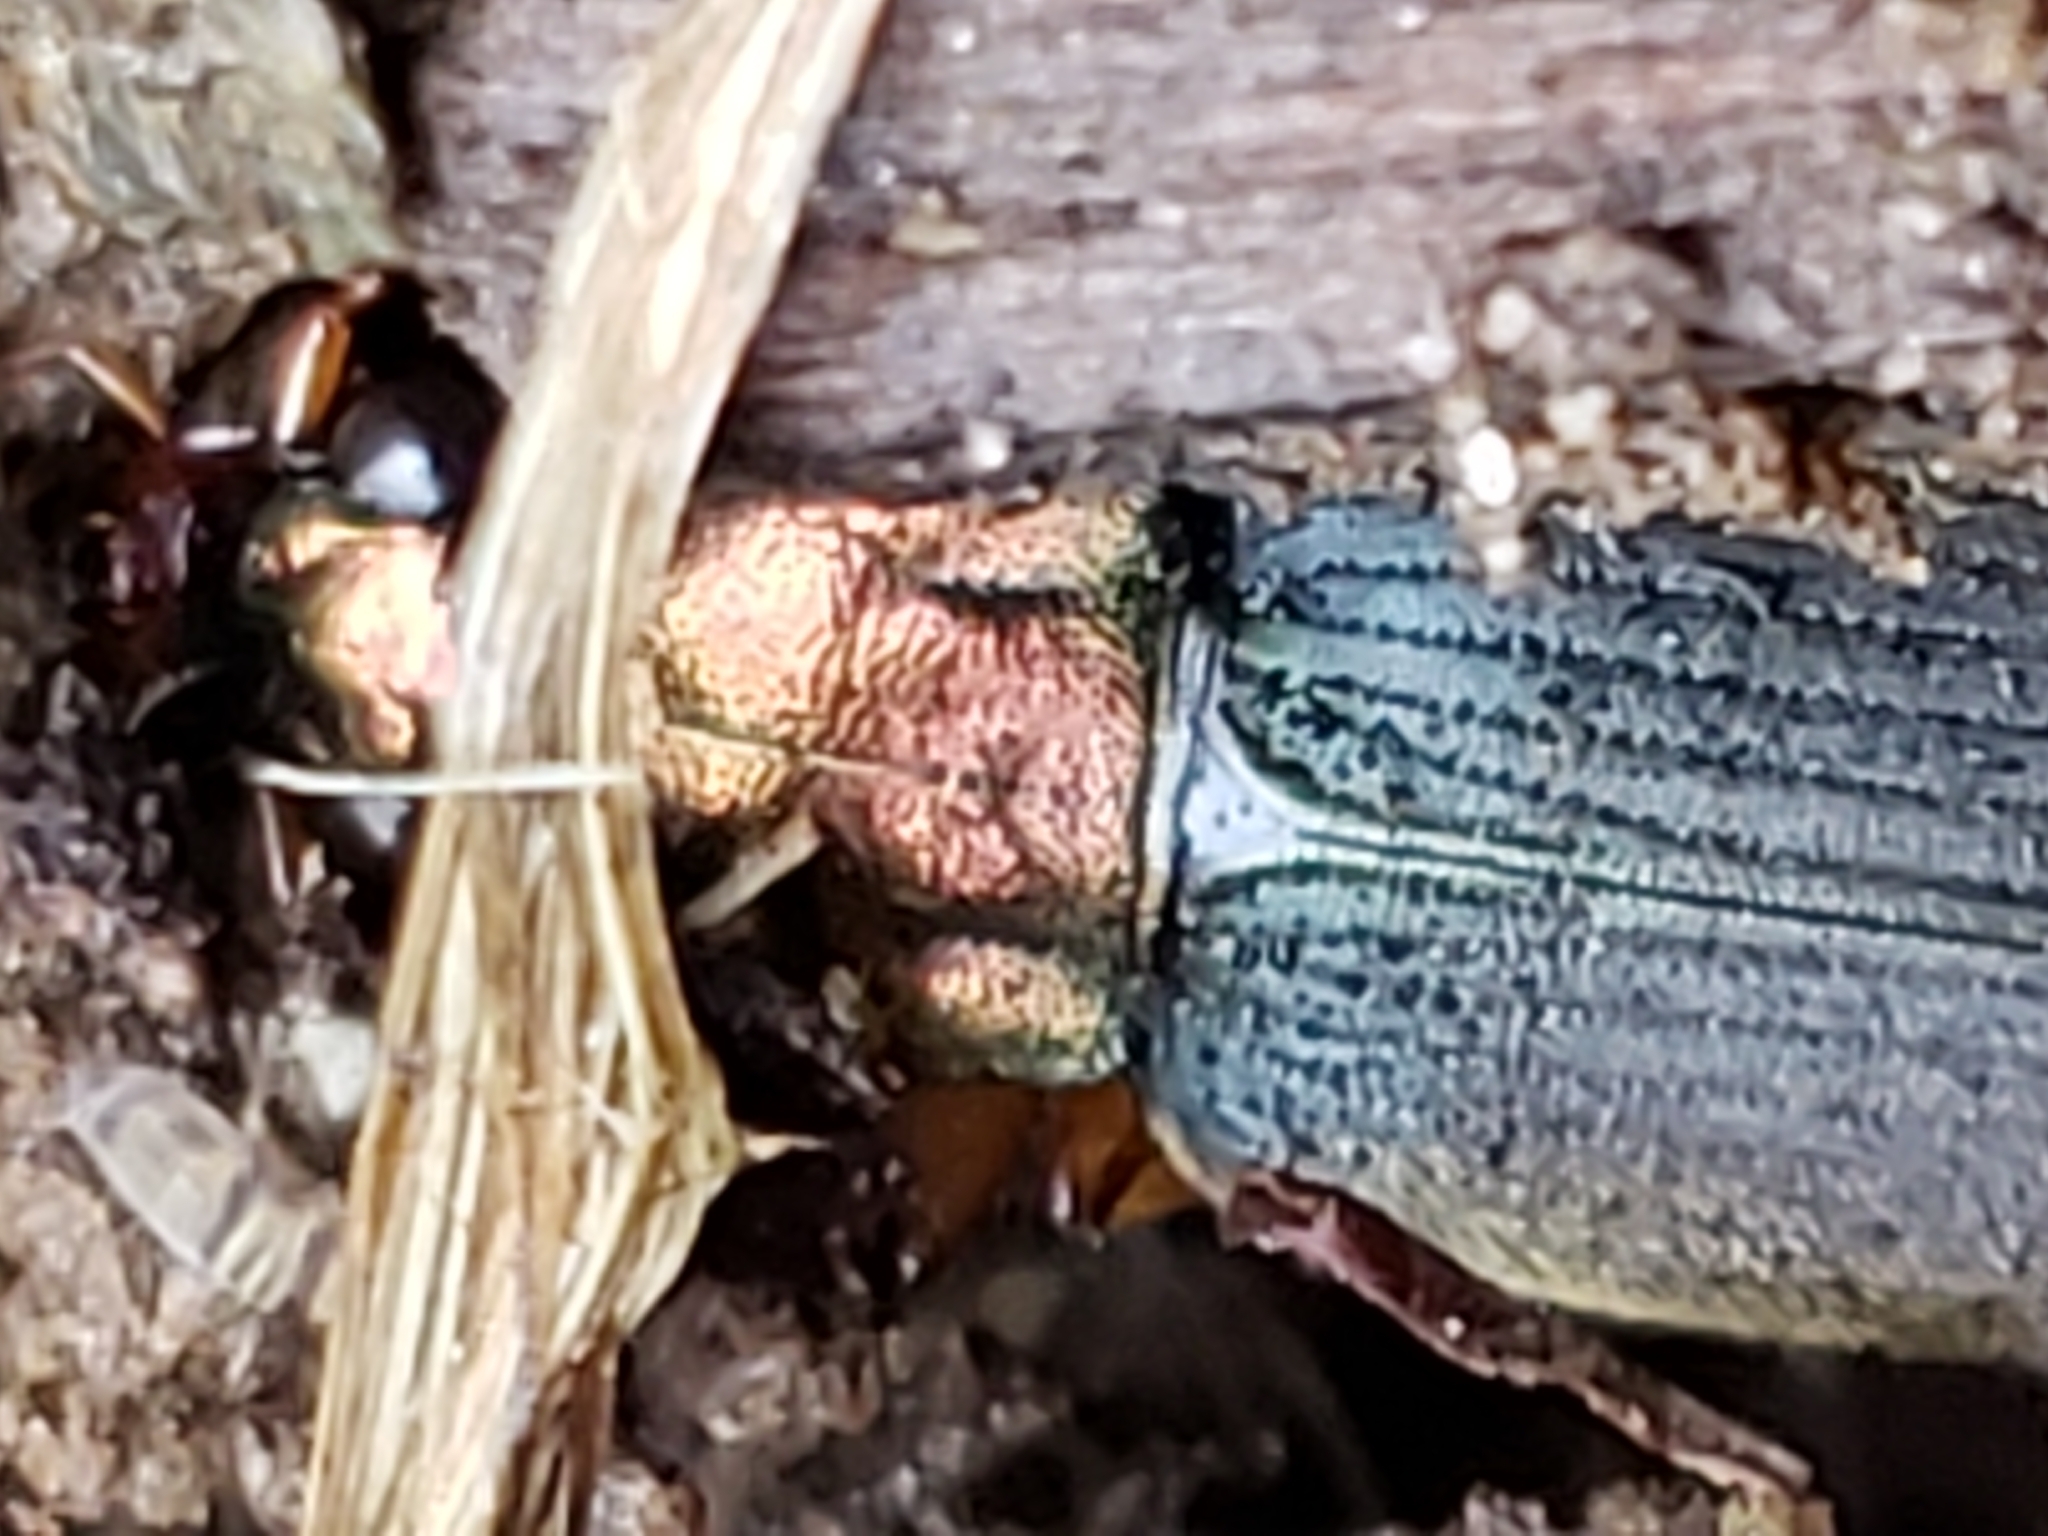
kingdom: Animalia
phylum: Arthropoda
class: Insecta
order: Coleoptera
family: Carabidae
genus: Chlaenius
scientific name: Chlaenius aestivus
